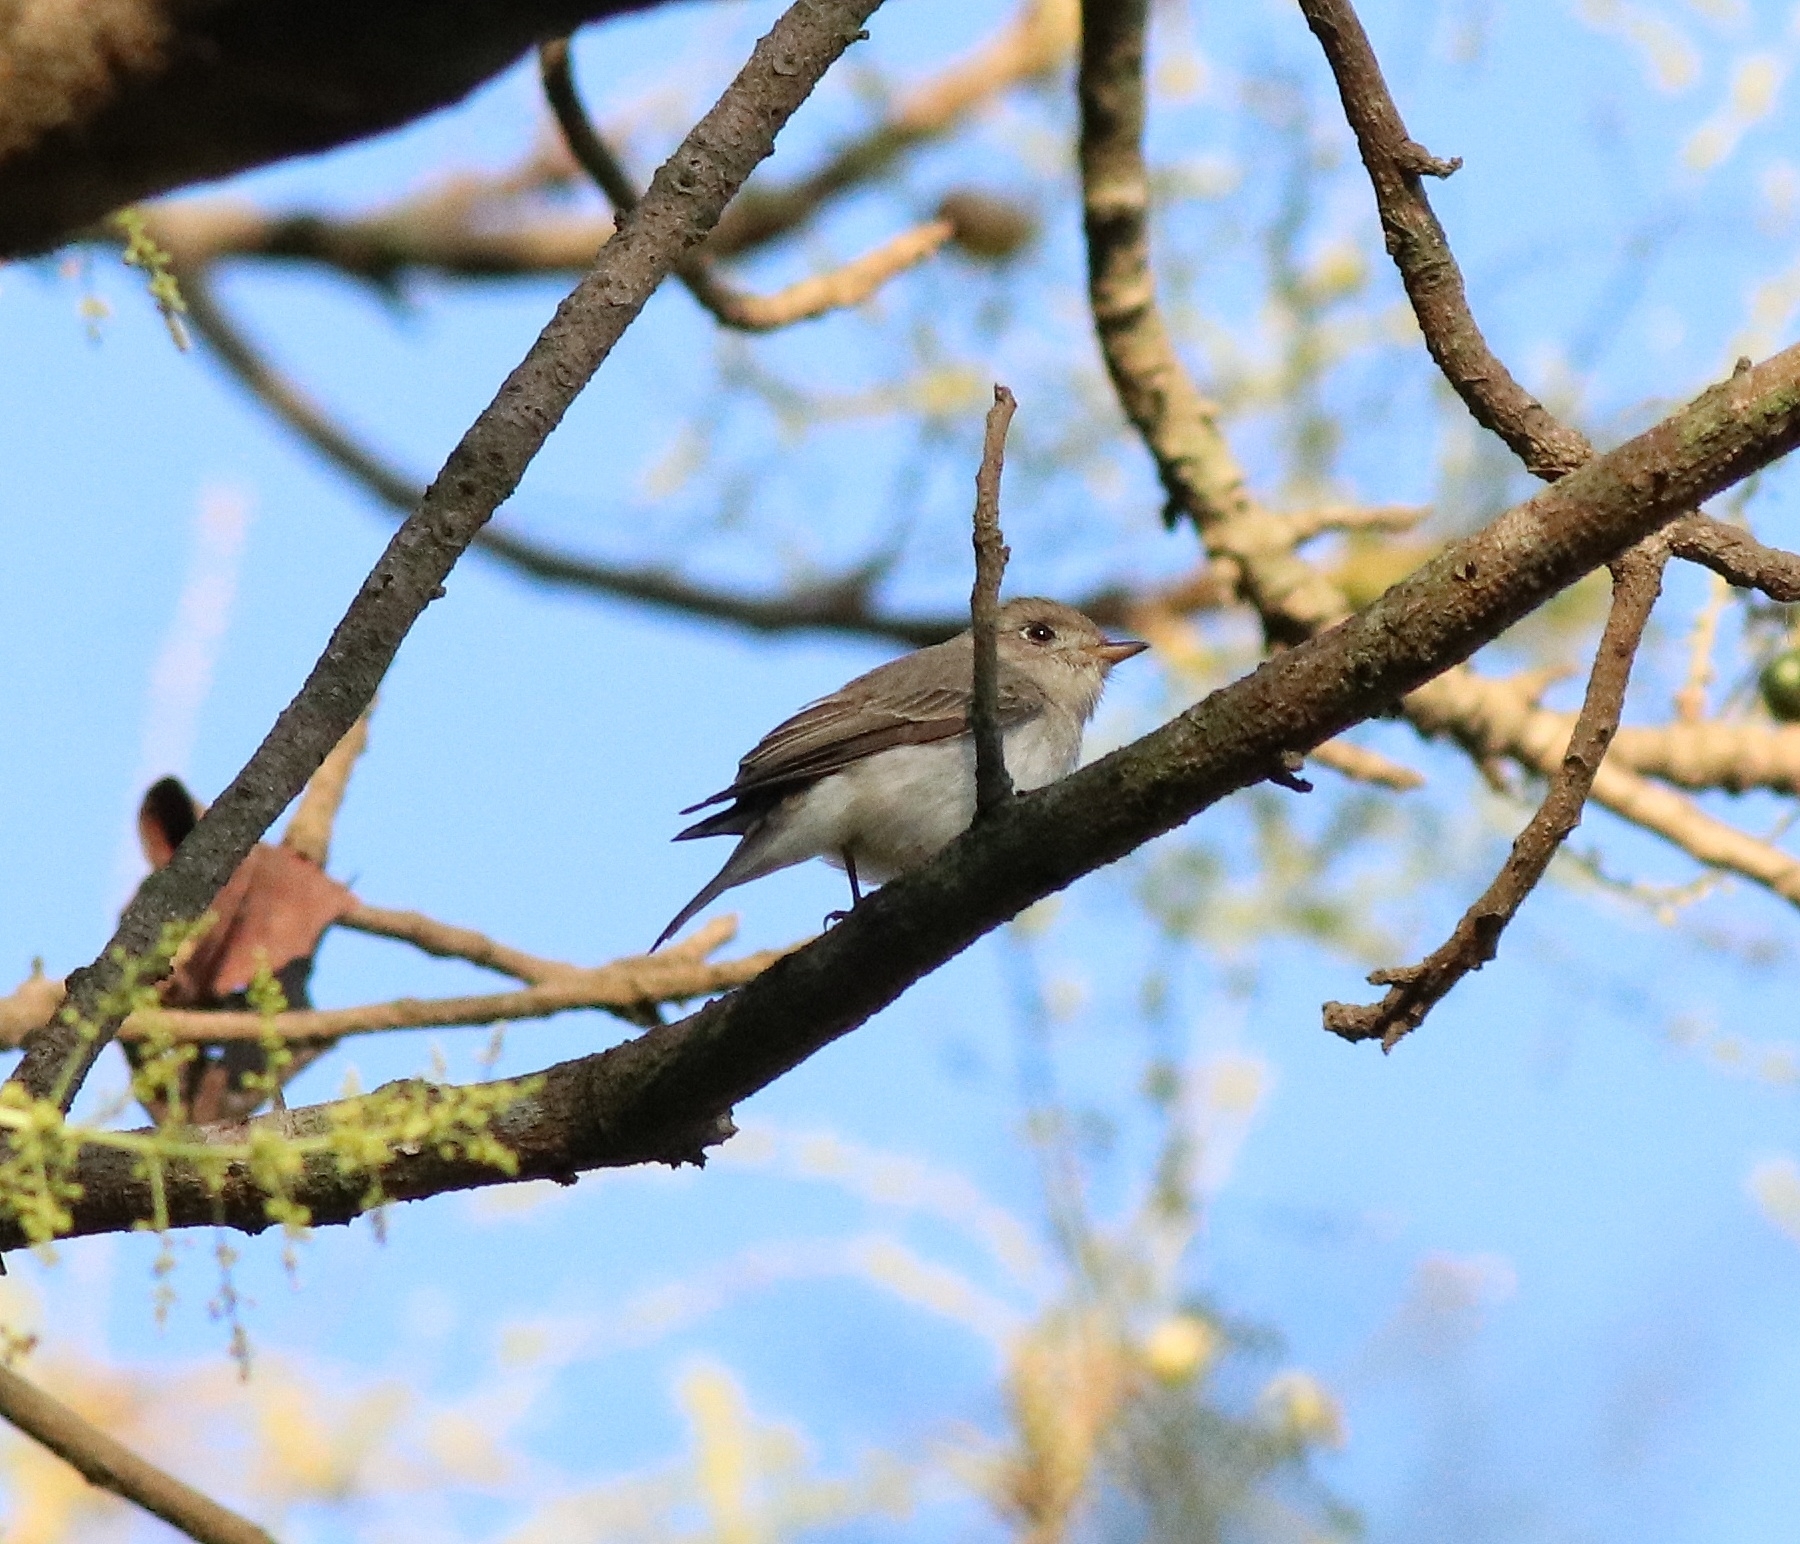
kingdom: Animalia
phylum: Chordata
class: Aves
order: Passeriformes
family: Muscicapidae
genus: Muscicapa
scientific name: Muscicapa latirostris
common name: Asian brown flycatcher
